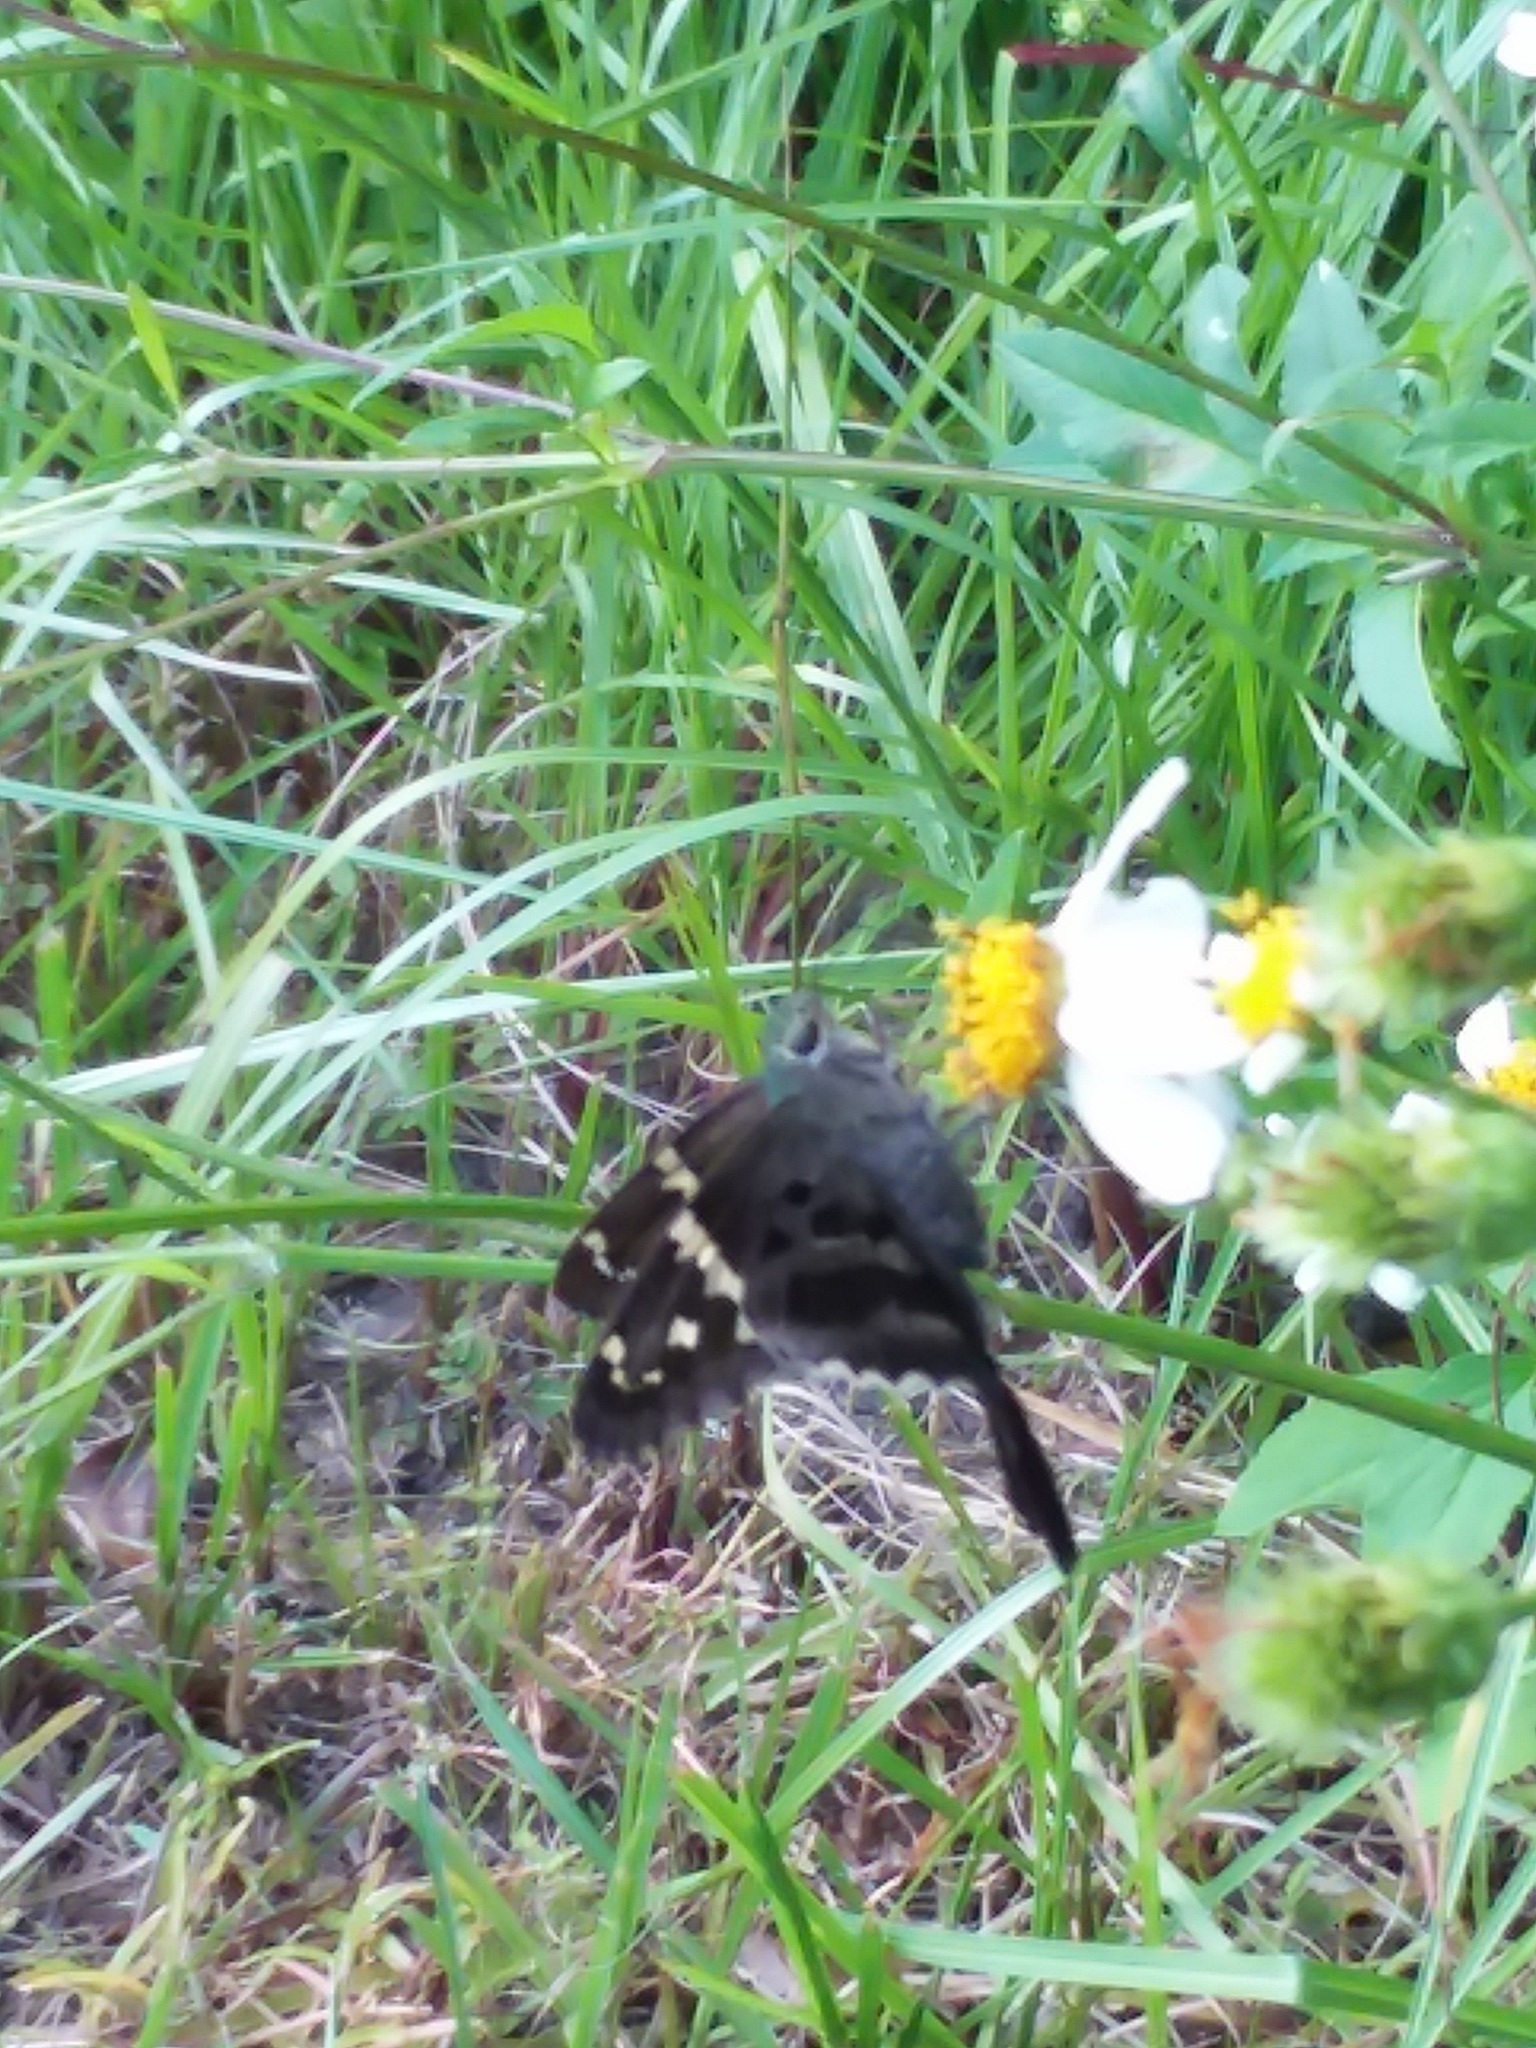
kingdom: Animalia
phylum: Arthropoda
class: Insecta
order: Lepidoptera
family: Hesperiidae
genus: Urbanus
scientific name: Urbanus proteus
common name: Long-tailed skipper
